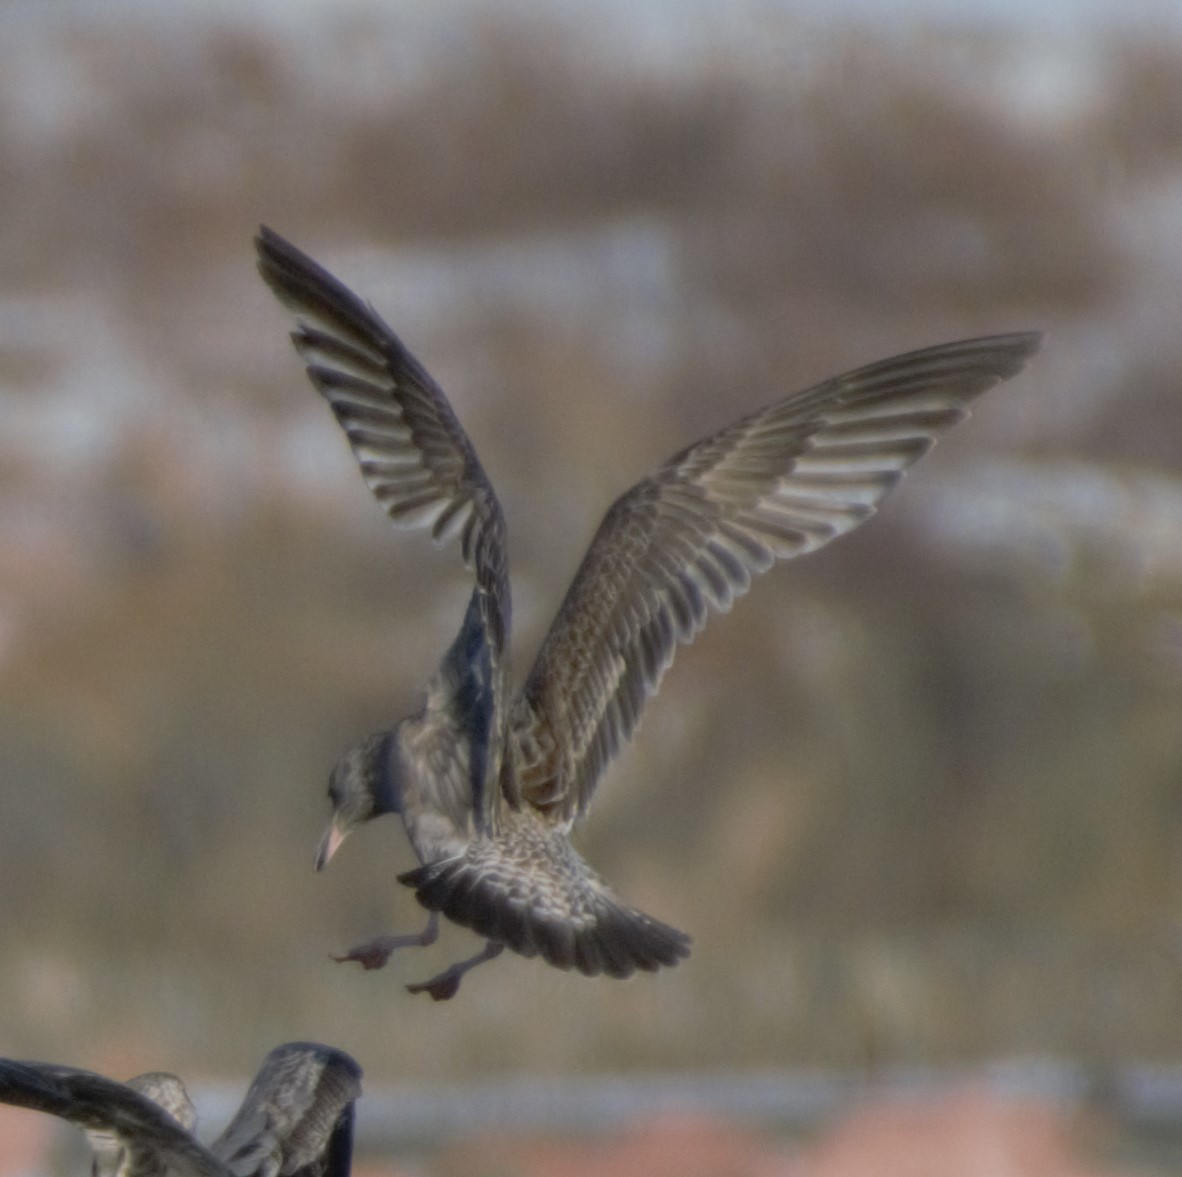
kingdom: Animalia
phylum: Chordata
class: Aves
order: Charadriiformes
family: Laridae
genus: Larus
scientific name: Larus argentatus
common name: Herring gull
